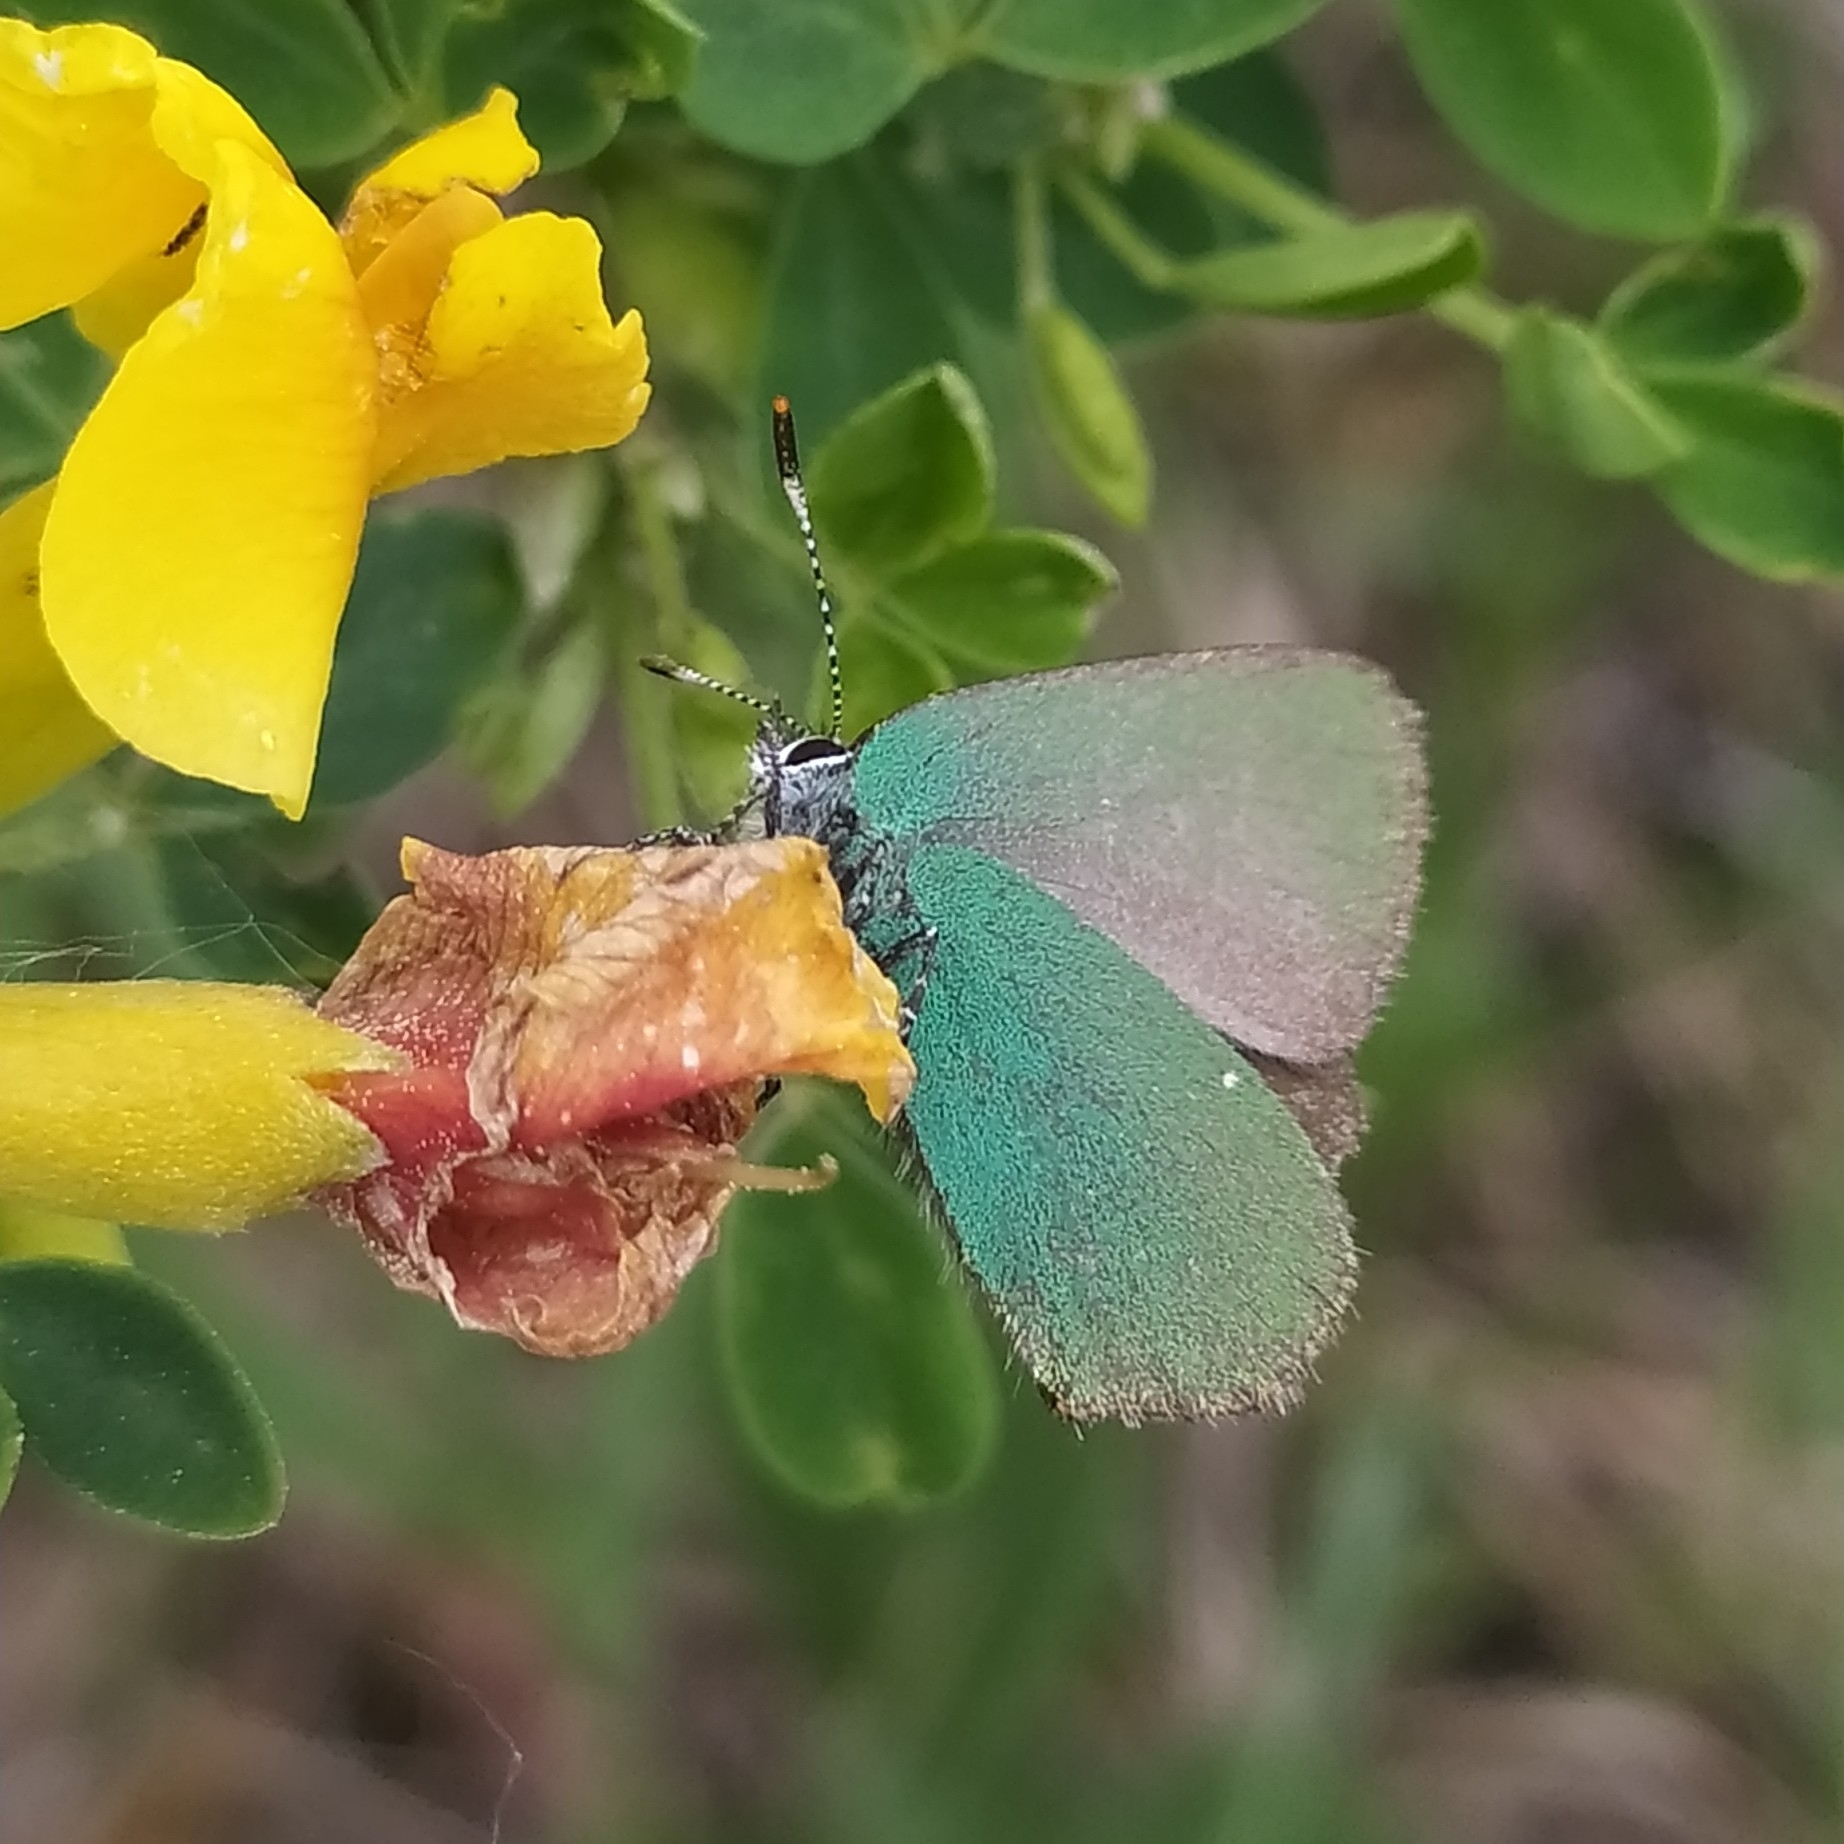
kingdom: Animalia
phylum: Arthropoda
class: Insecta
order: Lepidoptera
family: Lycaenidae
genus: Callophrys
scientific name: Callophrys rubi
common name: Green hairstreak
